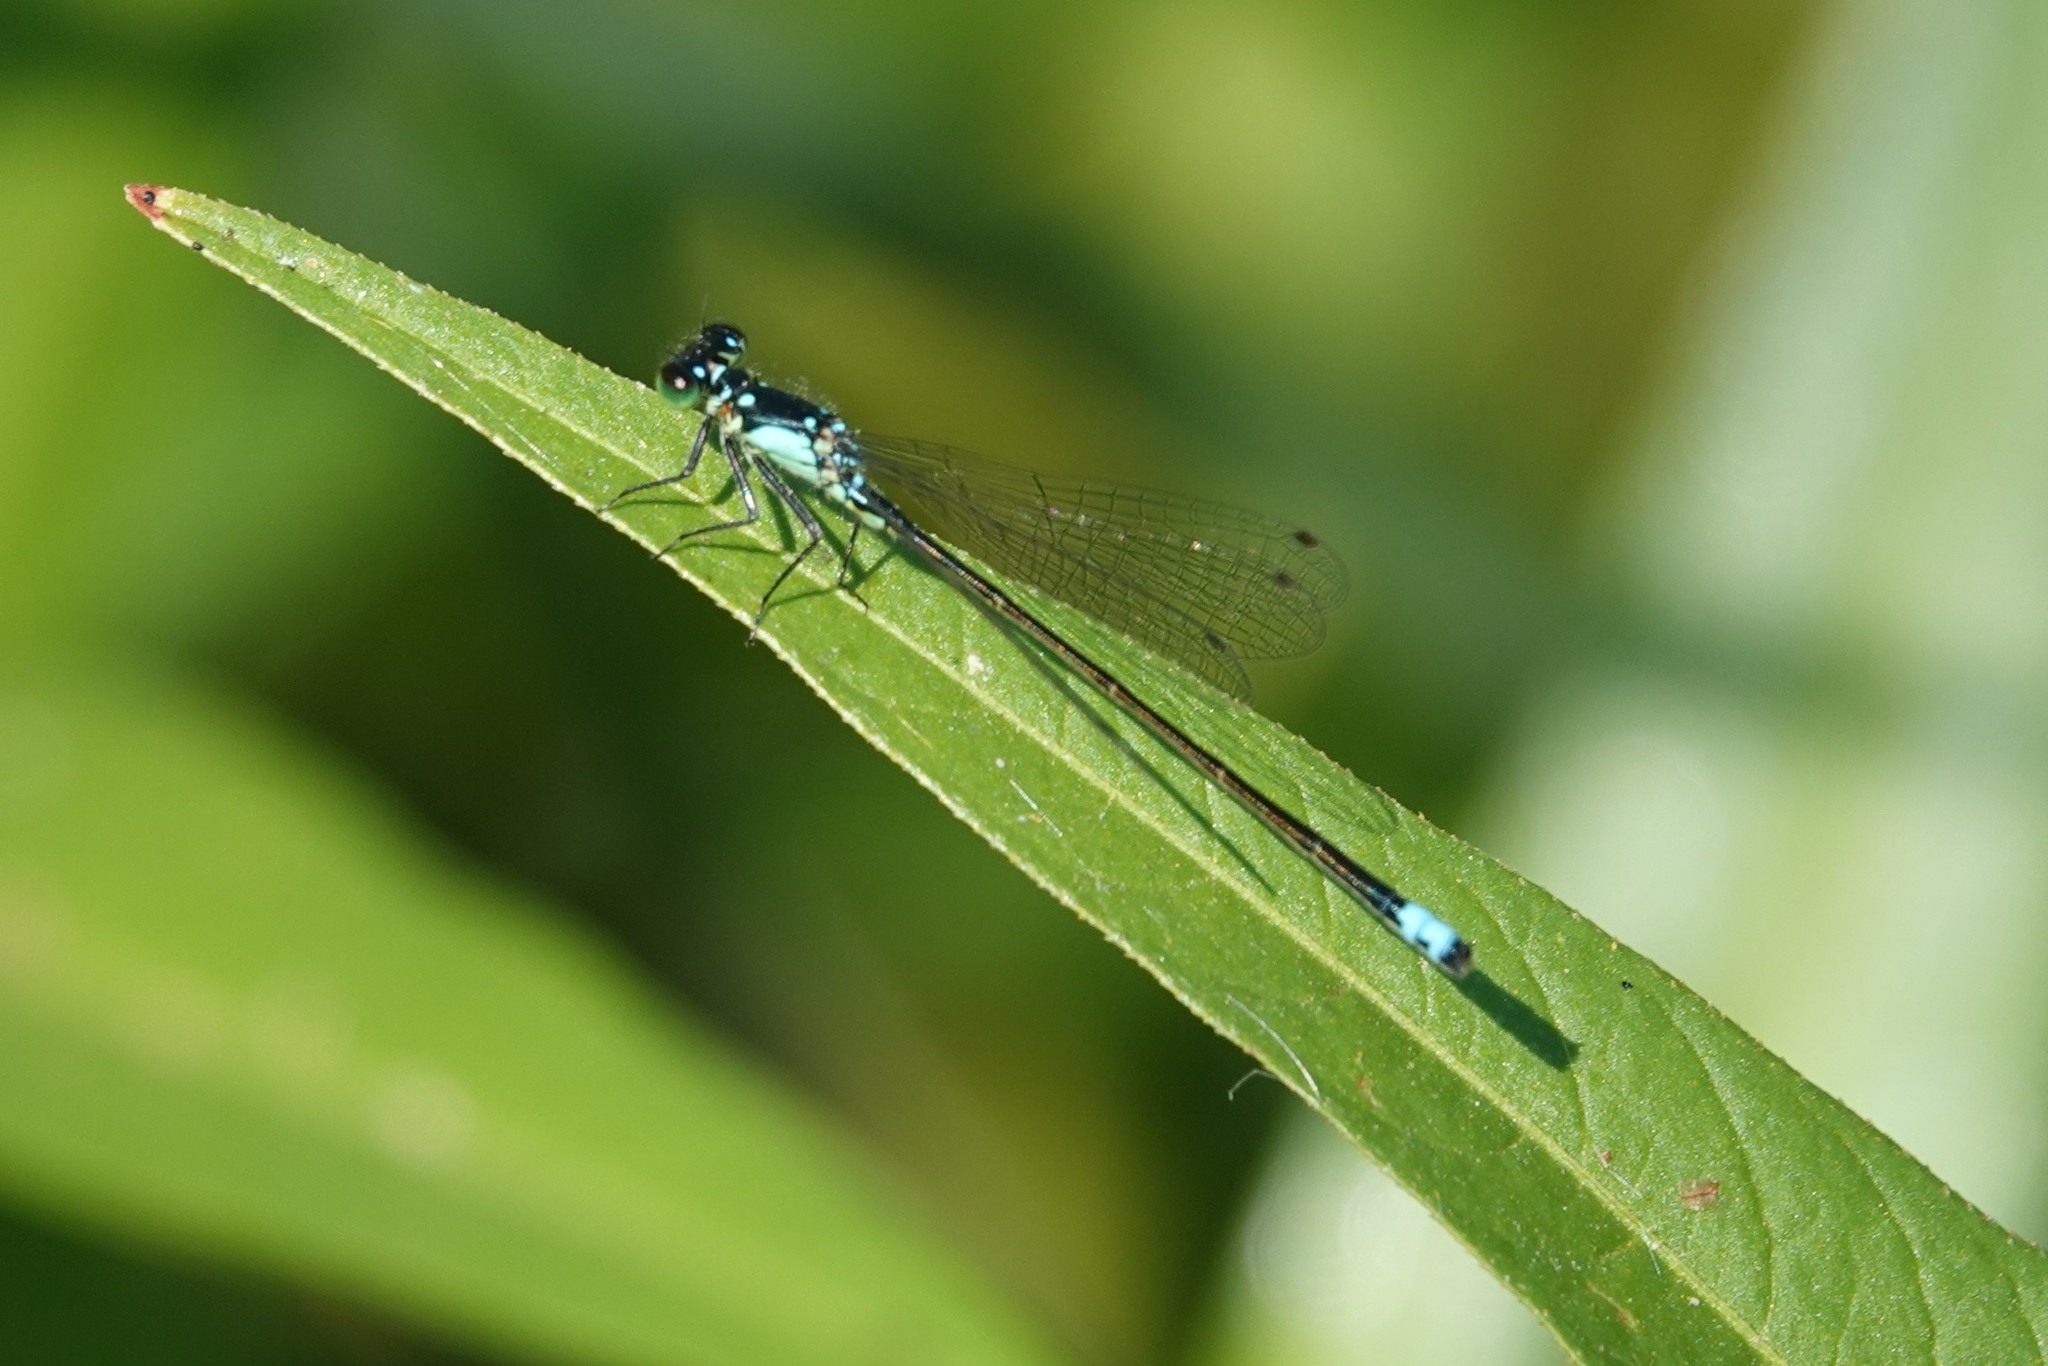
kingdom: Animalia
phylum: Arthropoda
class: Insecta
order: Odonata
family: Coenagrionidae
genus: Ischnura
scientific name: Ischnura cervula
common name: Pacific forktail
